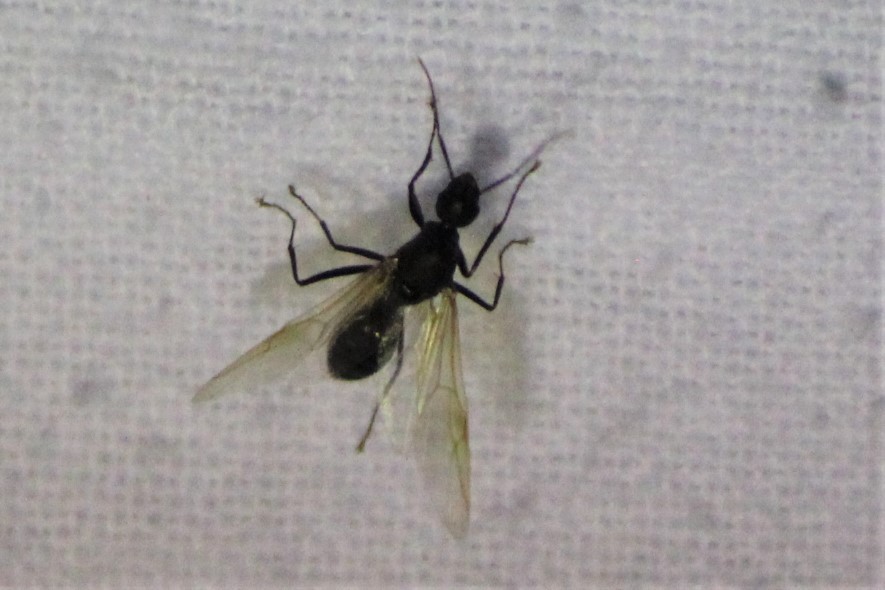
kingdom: Animalia
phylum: Arthropoda
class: Insecta
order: Hymenoptera
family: Formicidae
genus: Camponotus
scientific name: Camponotus pennsylvanicus
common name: Black carpenter ant
